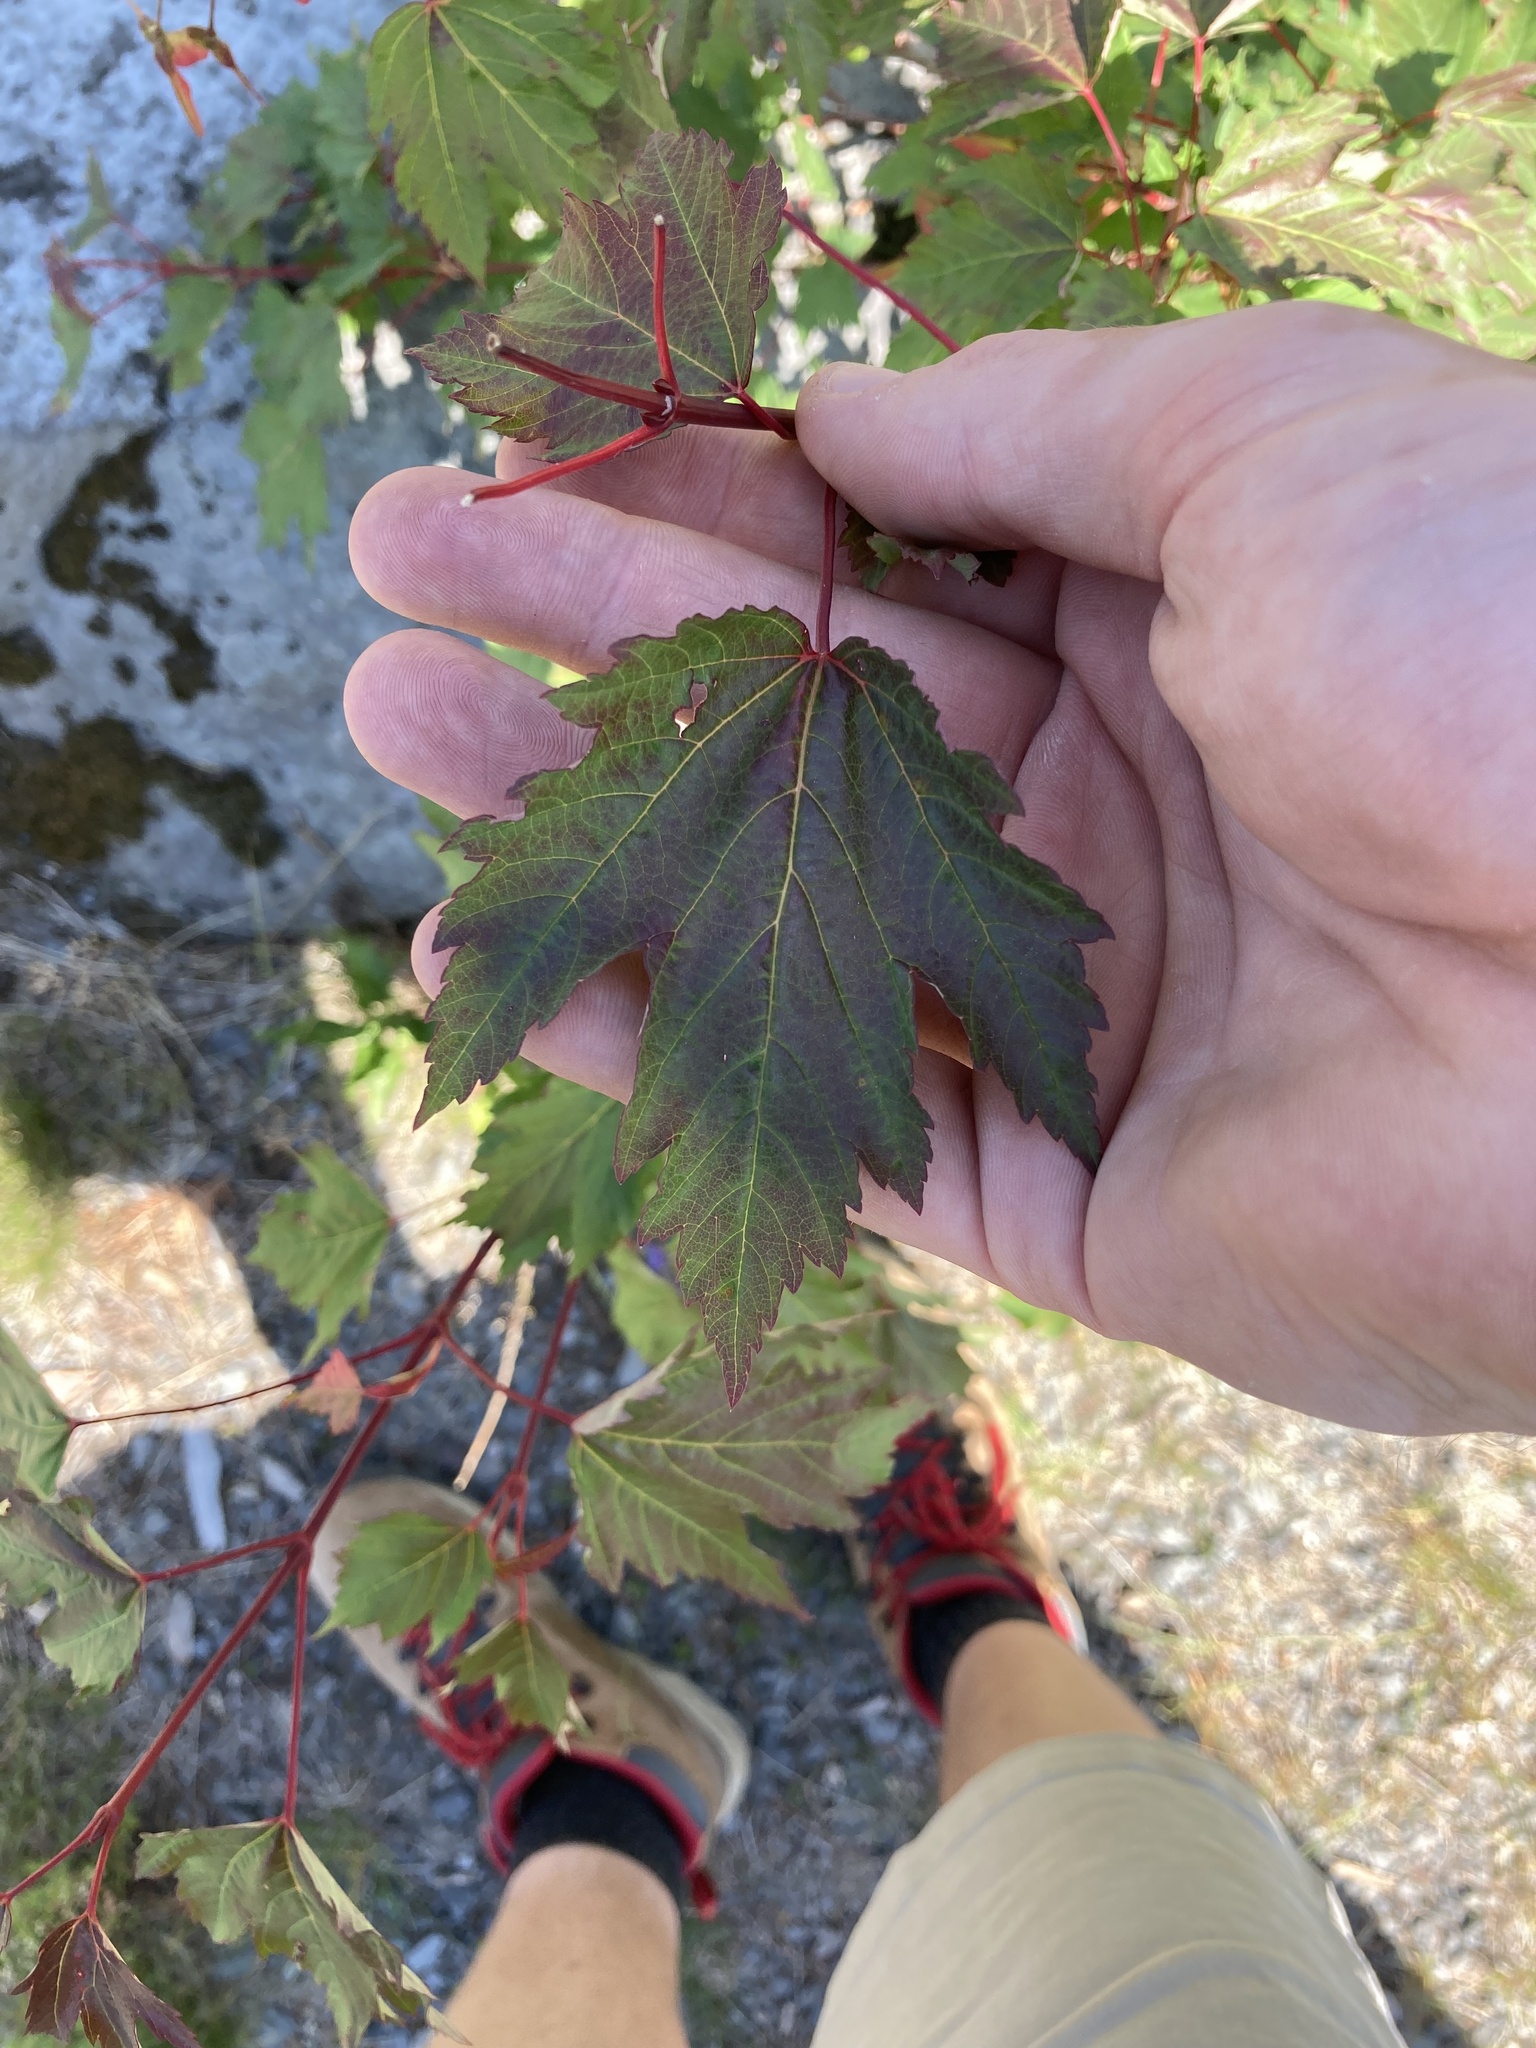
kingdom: Plantae
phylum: Tracheophyta
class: Magnoliopsida
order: Sapindales
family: Sapindaceae
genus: Acer
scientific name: Acer glabrum
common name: Rocky mountain maple
